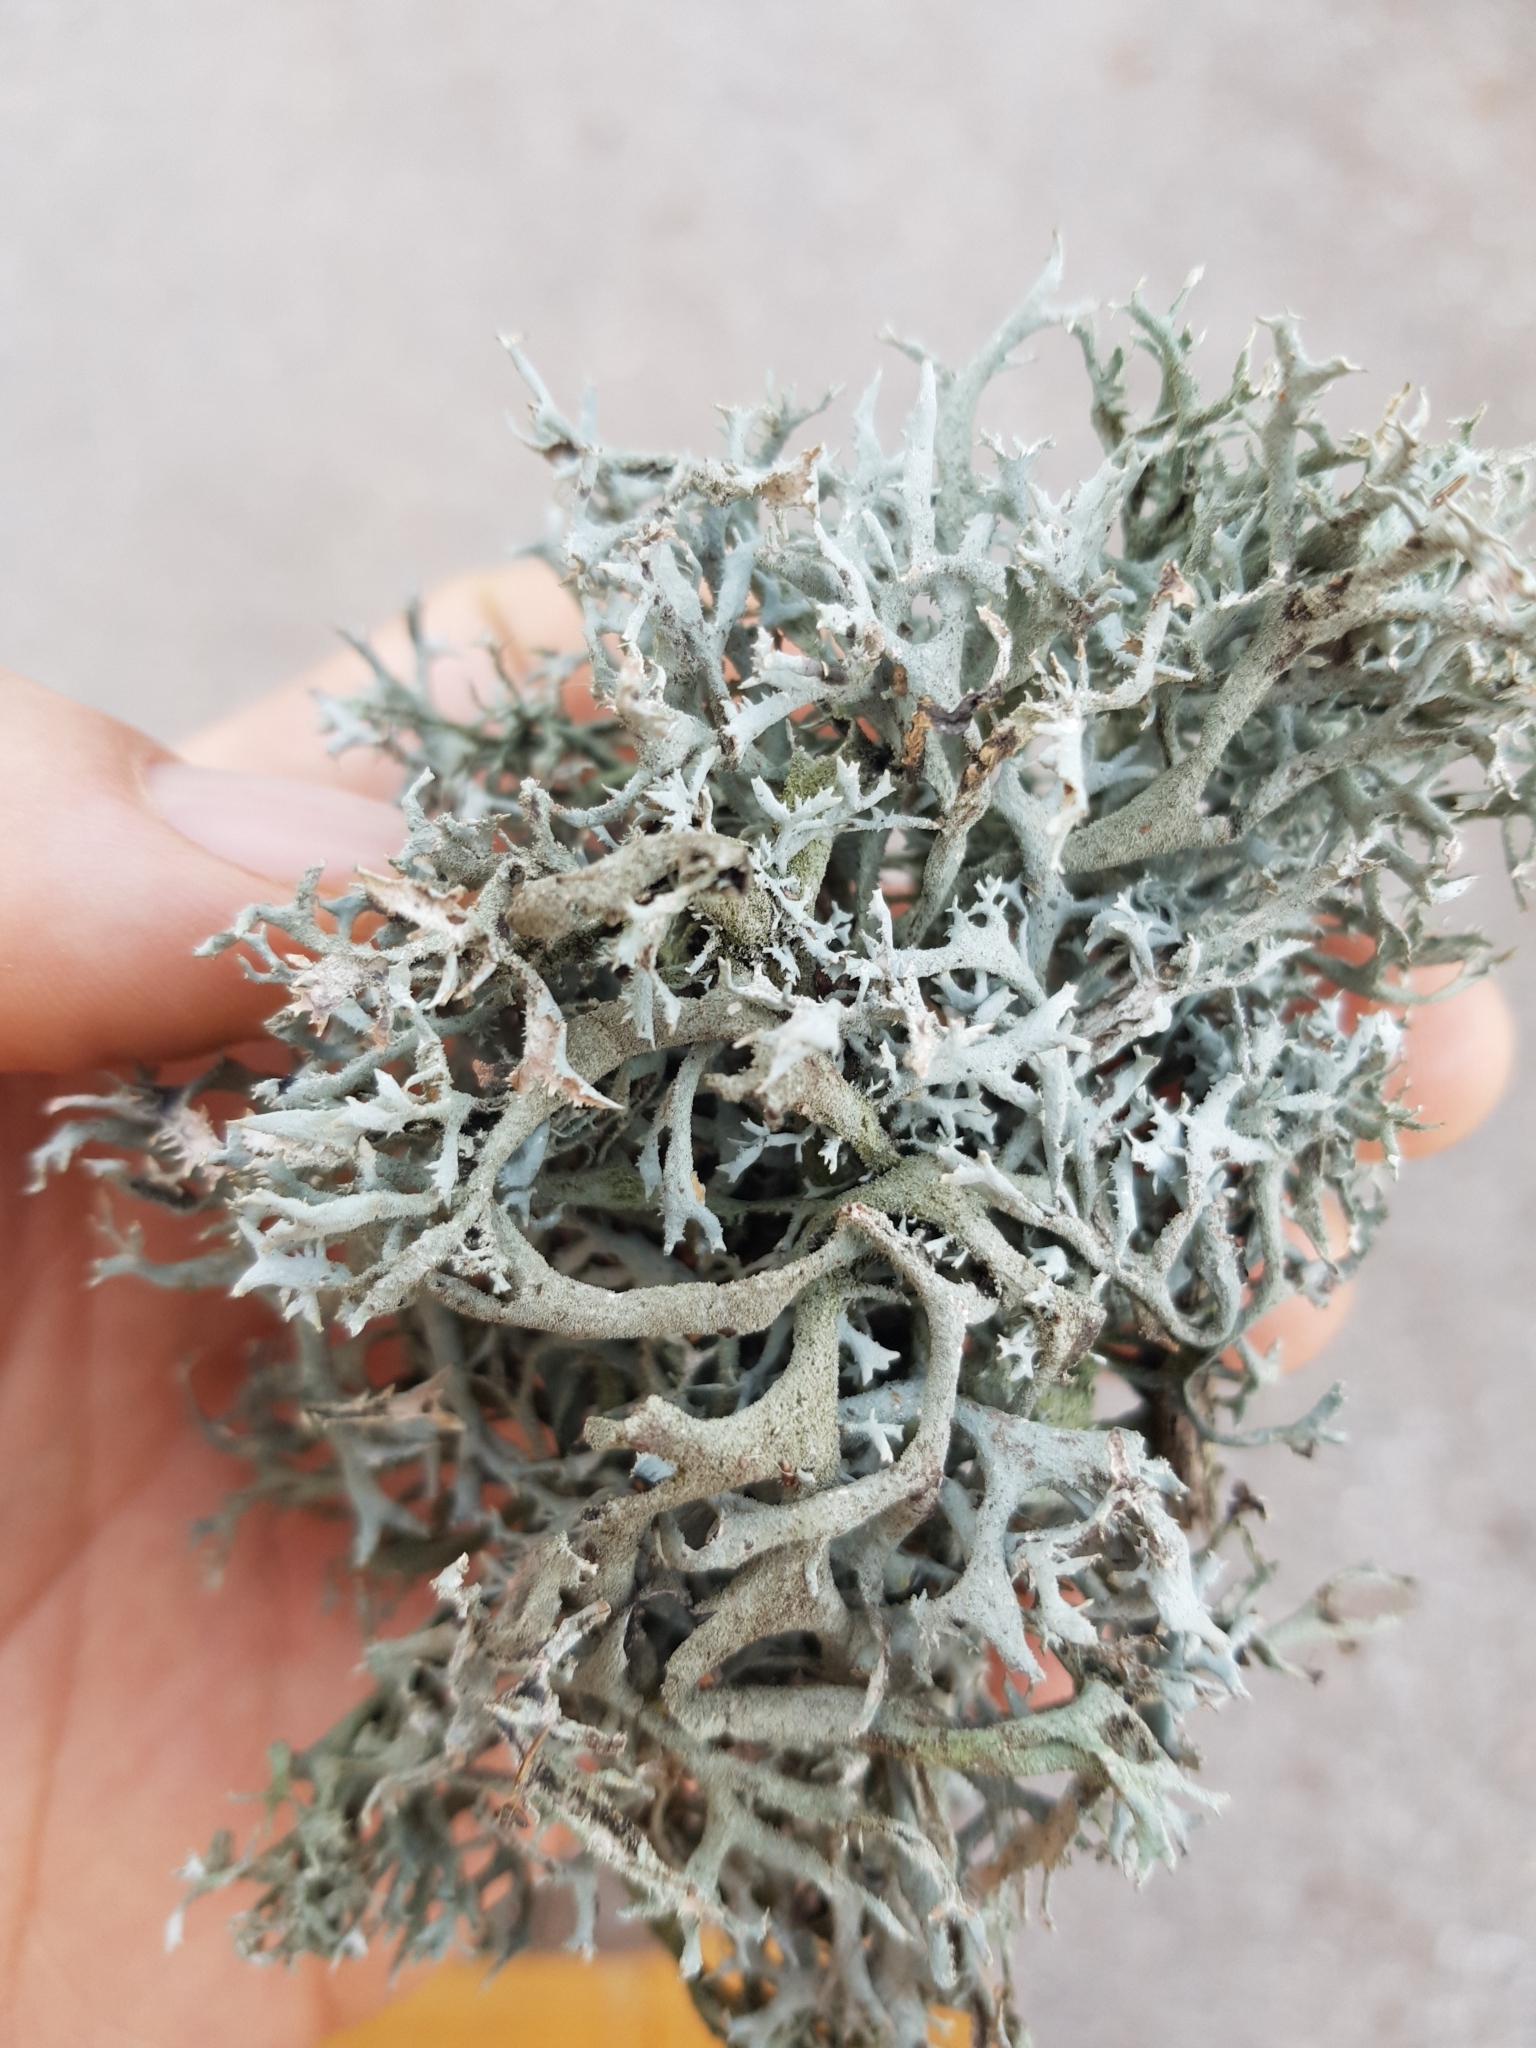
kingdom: Fungi
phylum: Ascomycota
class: Lecanoromycetes
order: Lecanorales
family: Parmeliaceae
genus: Pseudevernia
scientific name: Pseudevernia furfuracea
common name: Tree moss
